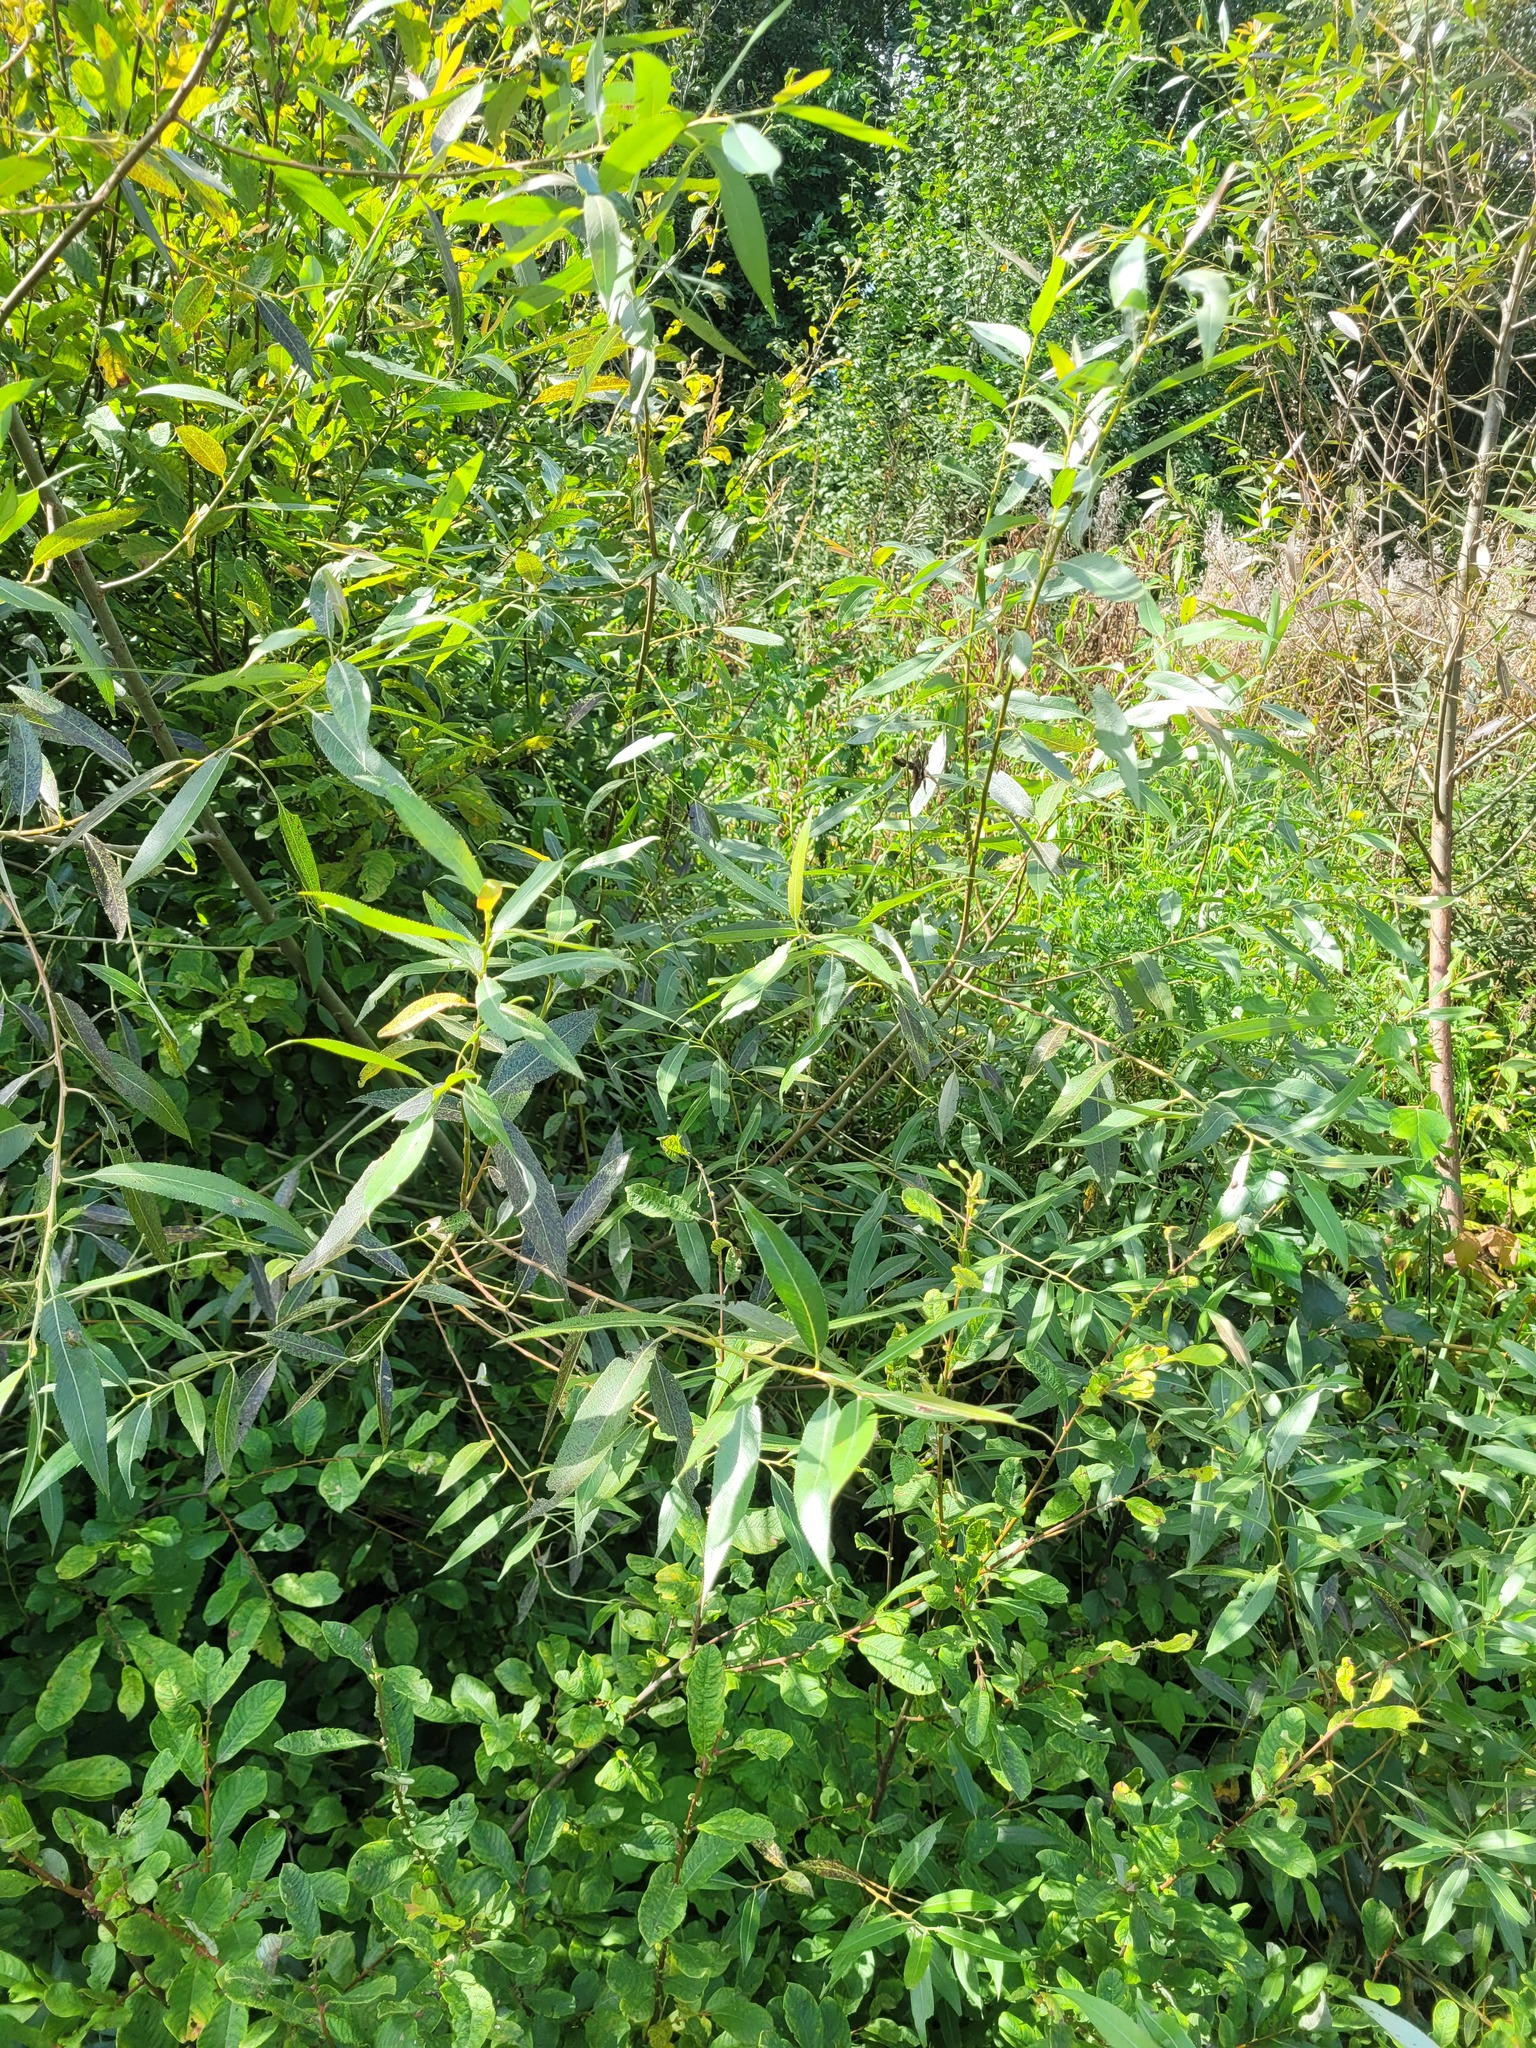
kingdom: Plantae
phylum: Tracheophyta
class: Magnoliopsida
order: Malpighiales
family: Salicaceae
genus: Salix
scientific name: Salix fragilis
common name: Crack willow
